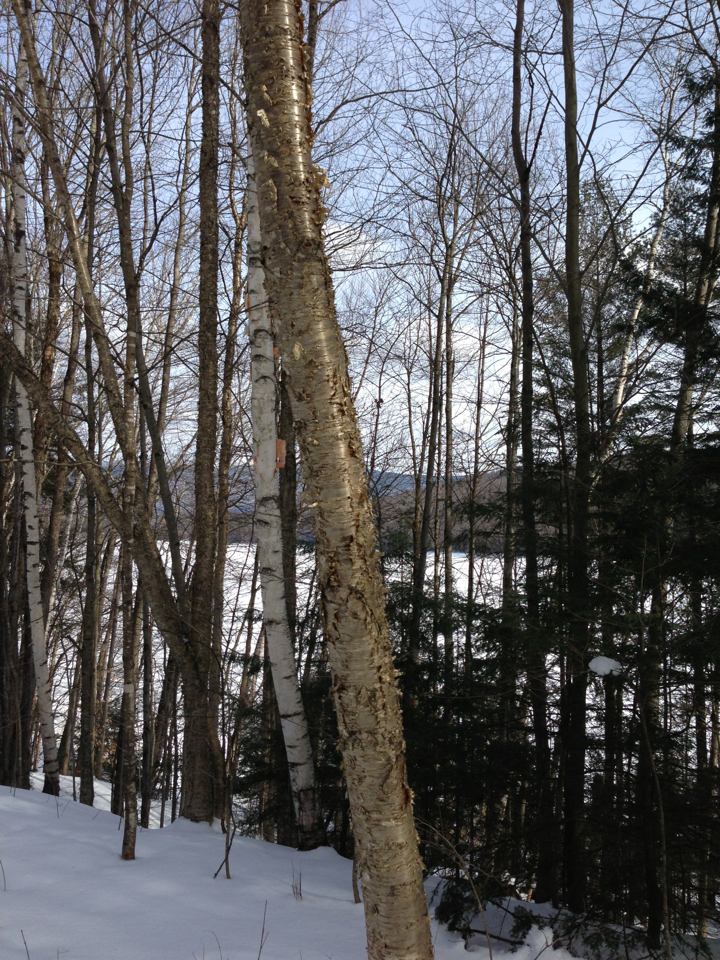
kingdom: Plantae
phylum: Tracheophyta
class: Magnoliopsida
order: Fagales
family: Betulaceae
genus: Betula
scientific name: Betula alleghaniensis
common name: Yellow birch
